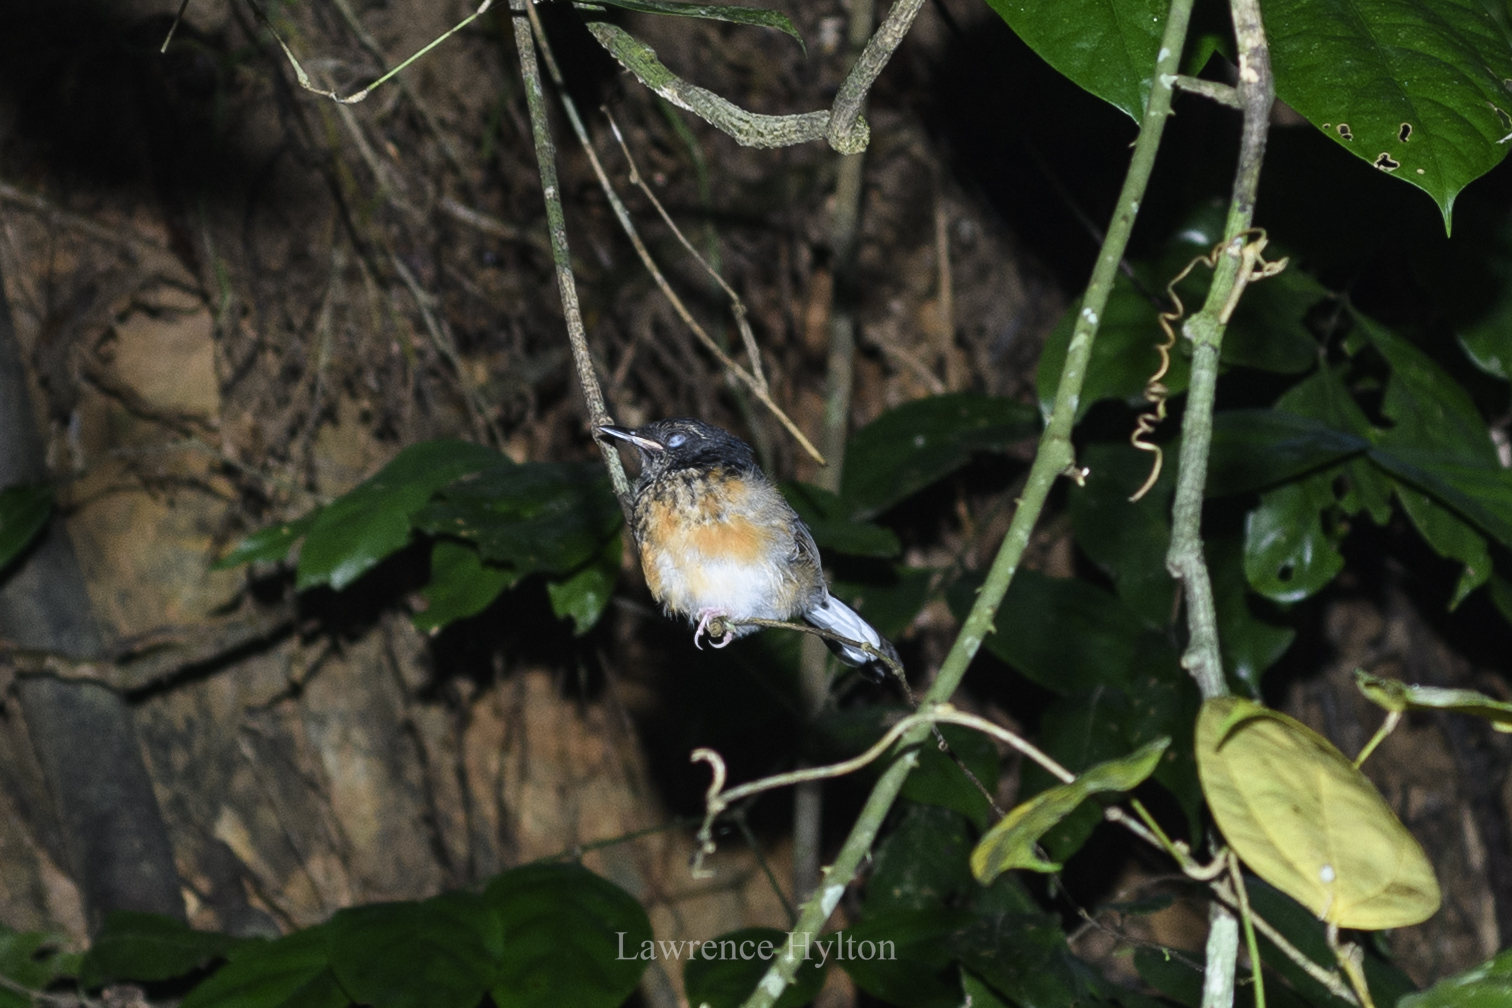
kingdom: Animalia
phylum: Chordata
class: Aves
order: Passeriformes
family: Muscicapidae
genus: Copsychus
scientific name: Copsychus malabaricus
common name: White-rumped shama
